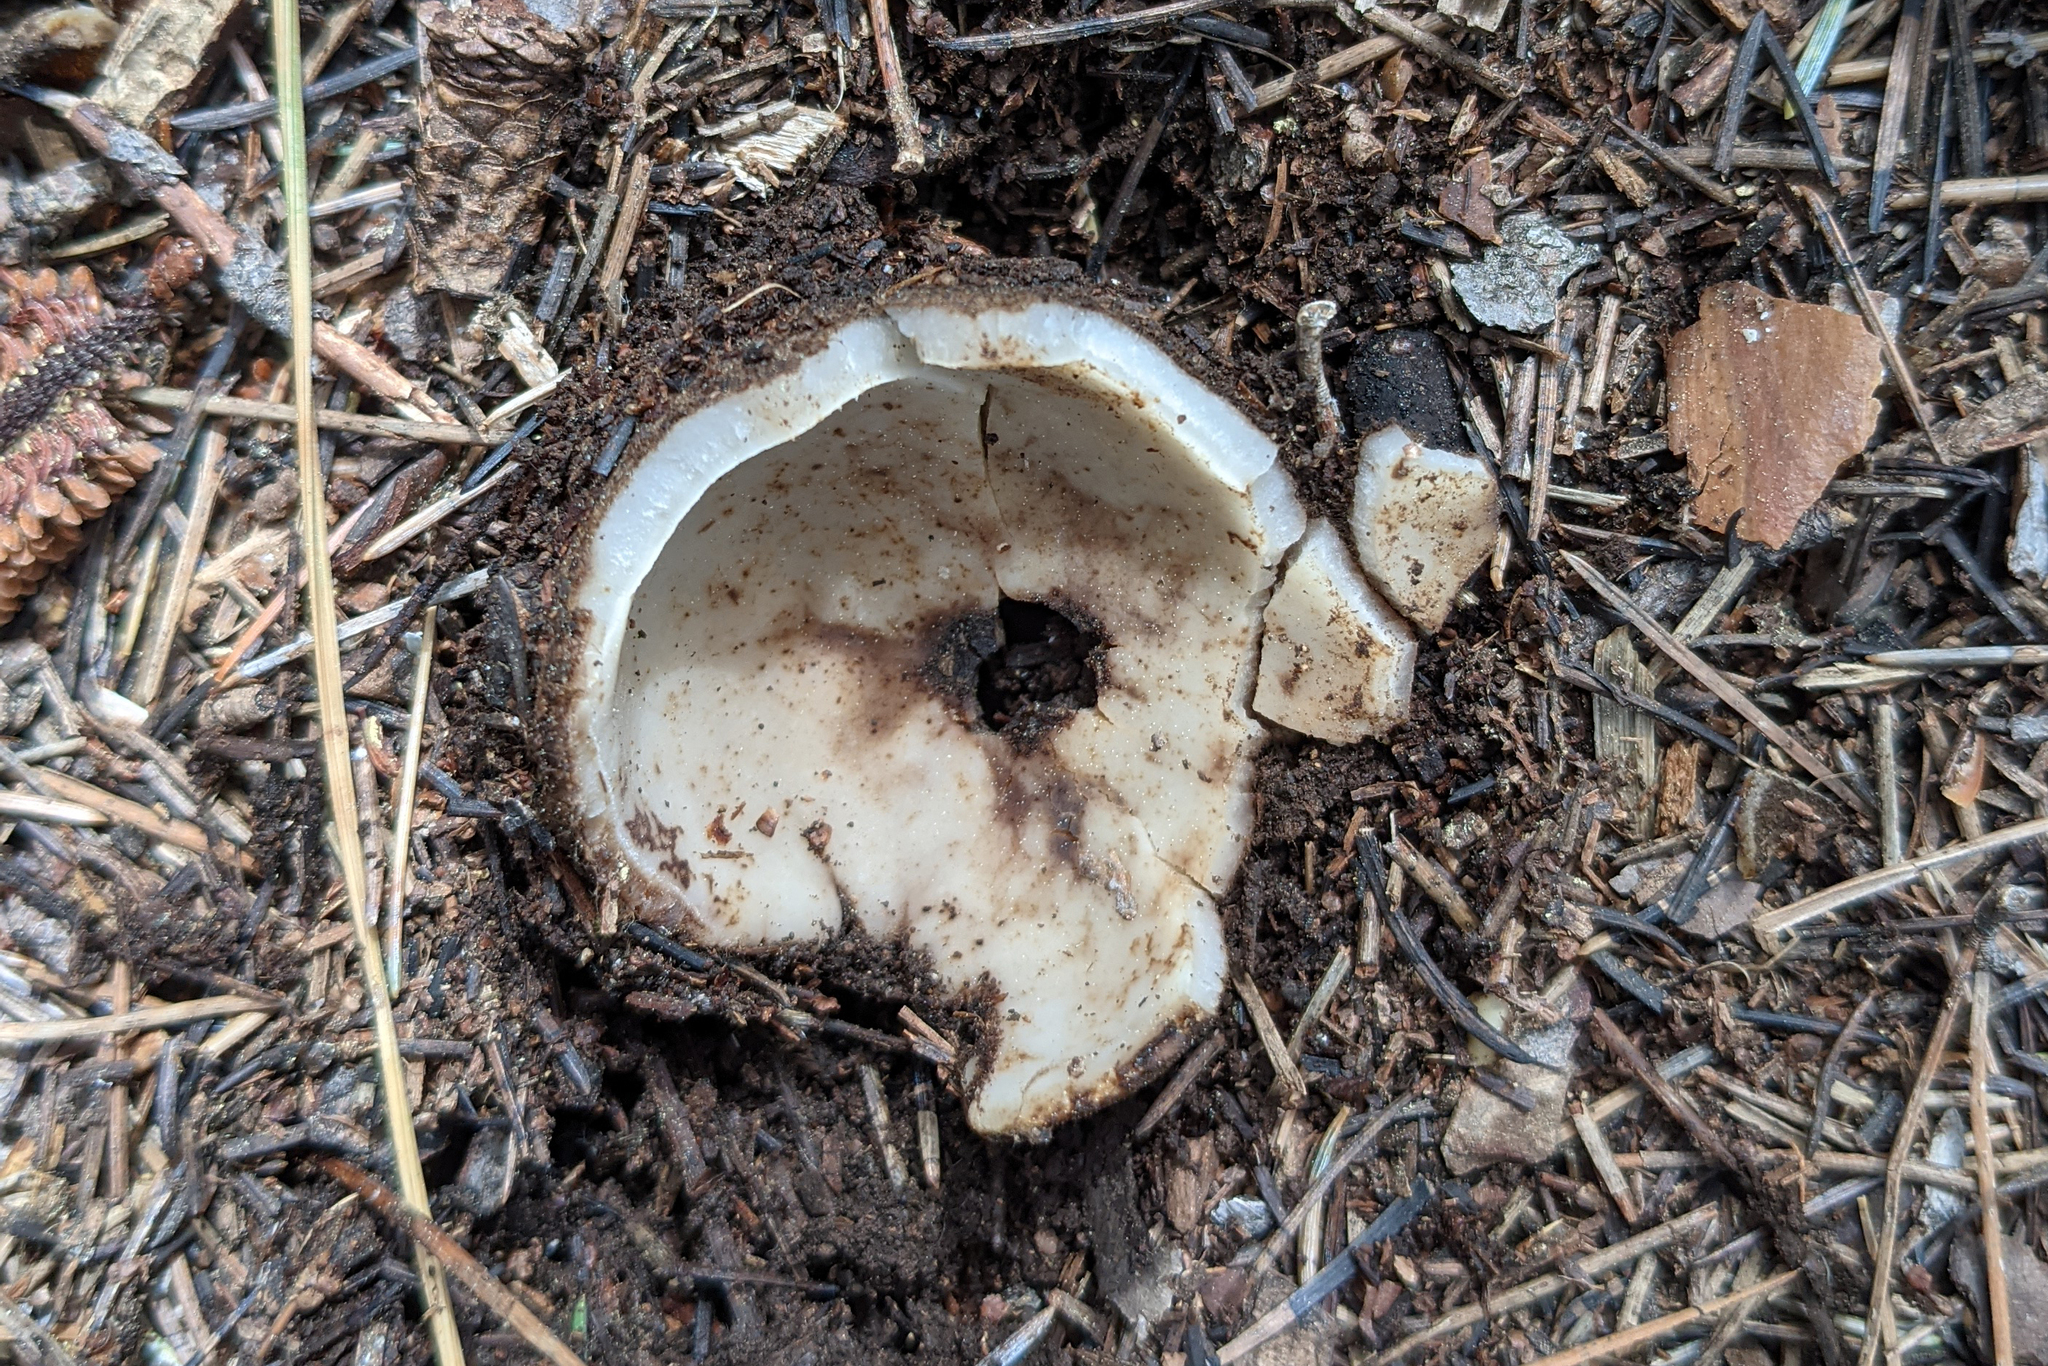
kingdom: Fungi
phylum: Ascomycota
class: Pezizomycetes
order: Pezizales
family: Pyronemataceae
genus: Geopora
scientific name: Geopora sumneriana
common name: Cedar cup
